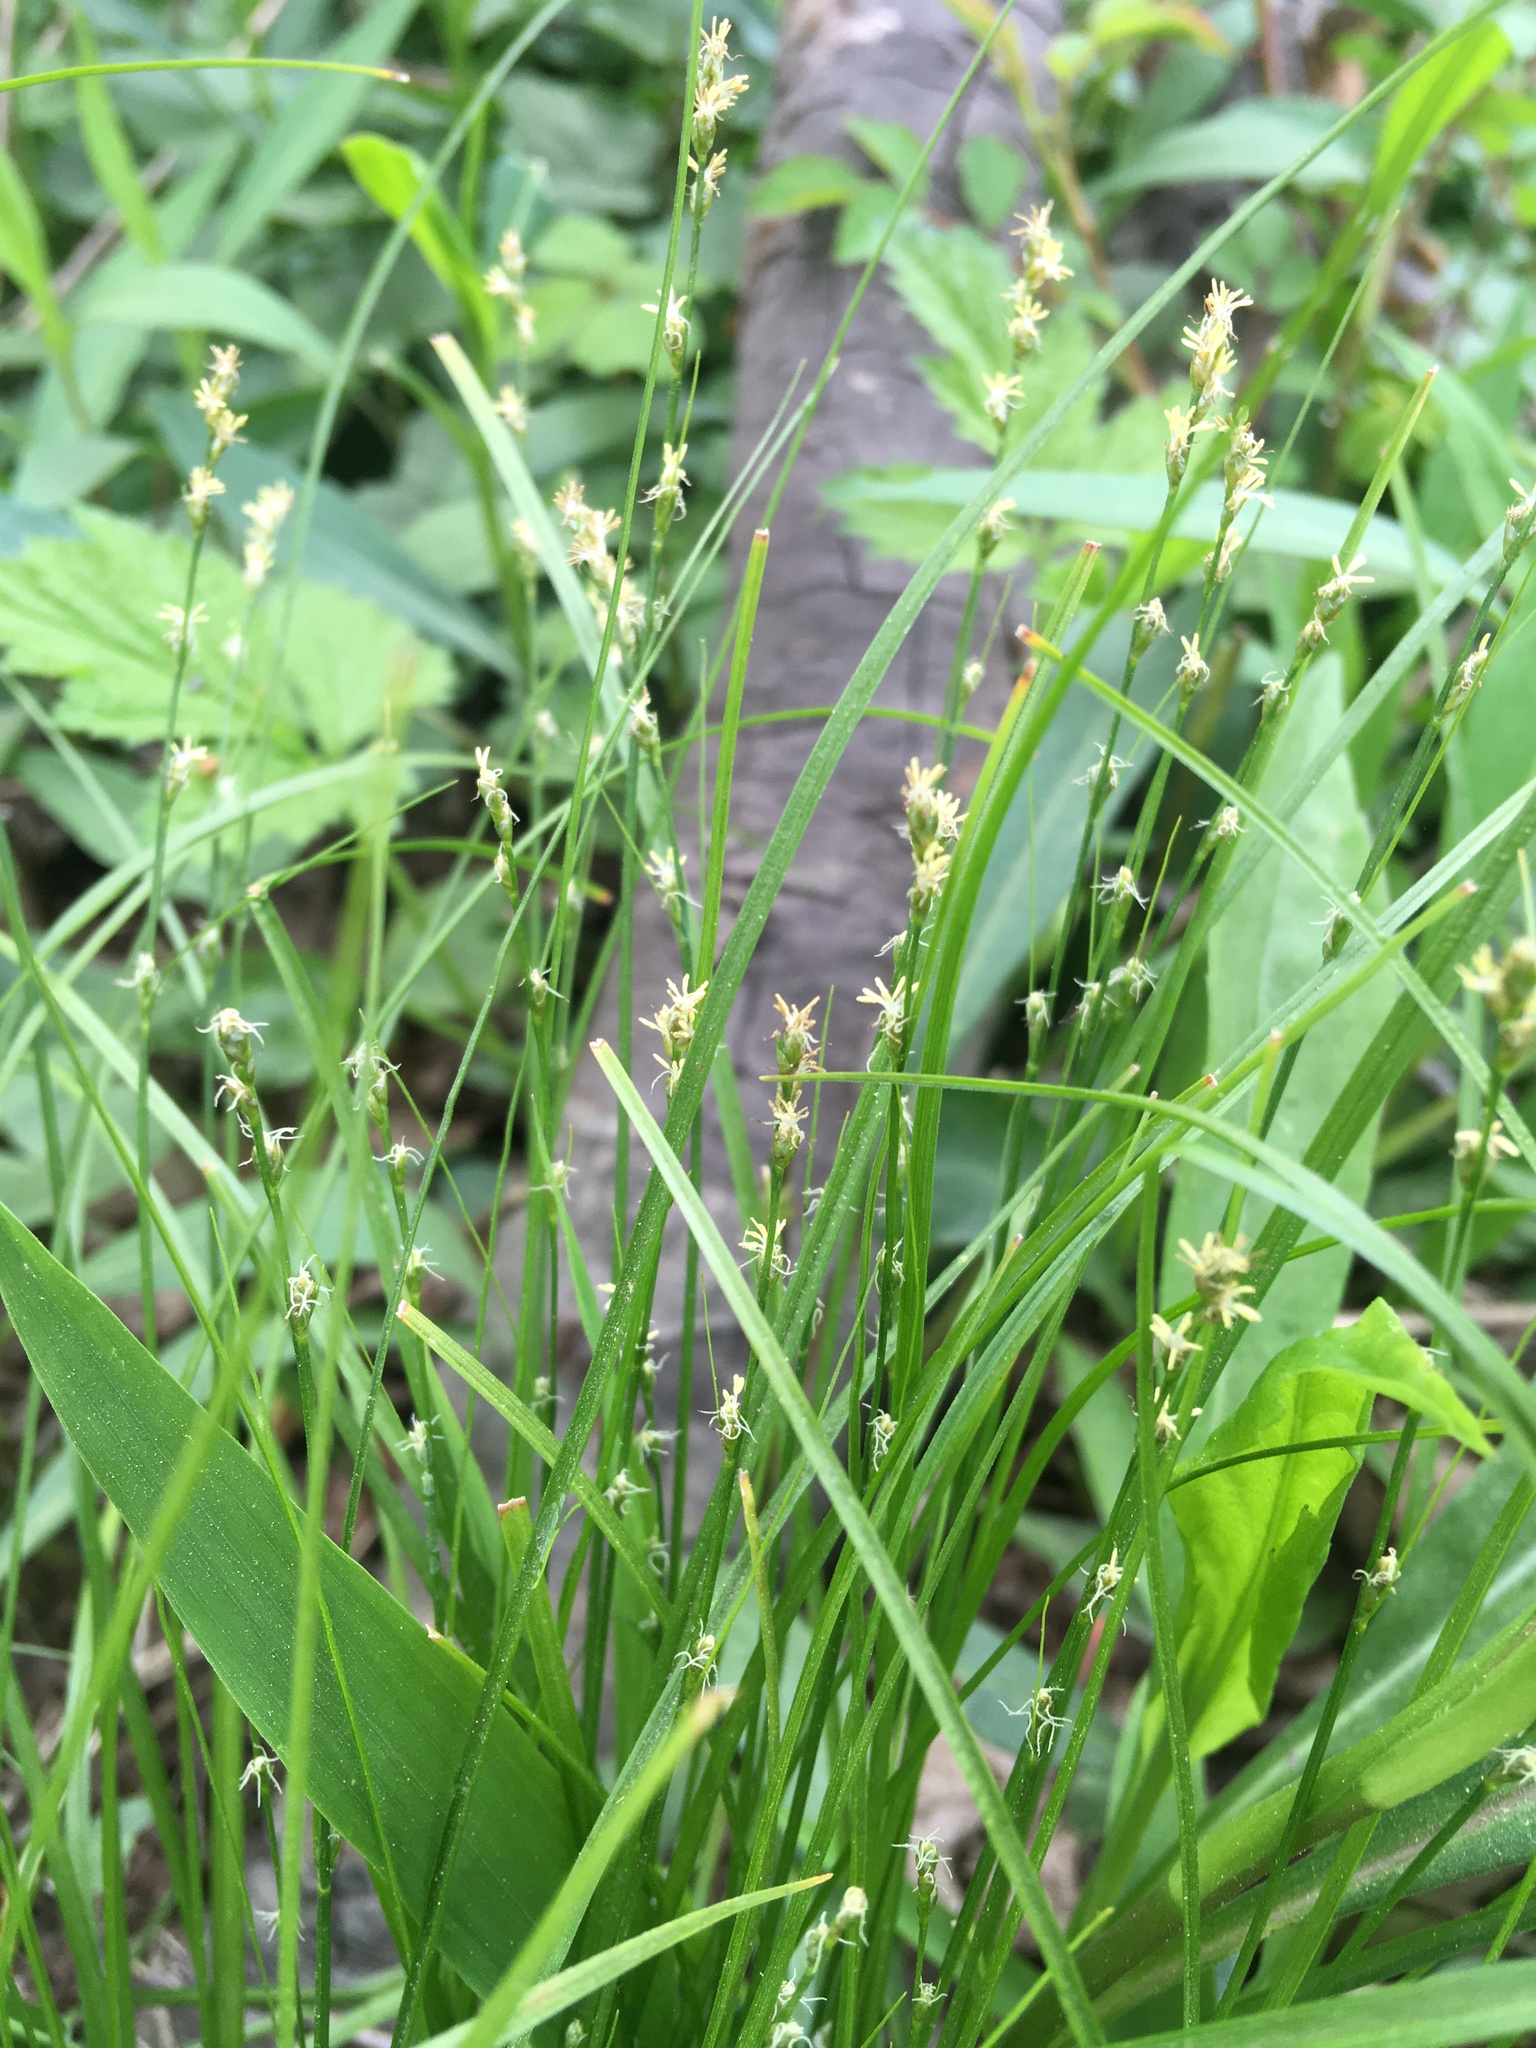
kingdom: Plantae
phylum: Tracheophyta
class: Liliopsida
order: Poales
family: Cyperaceae
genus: Carex
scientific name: Carex rosea
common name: Curly-styled wood sedge
